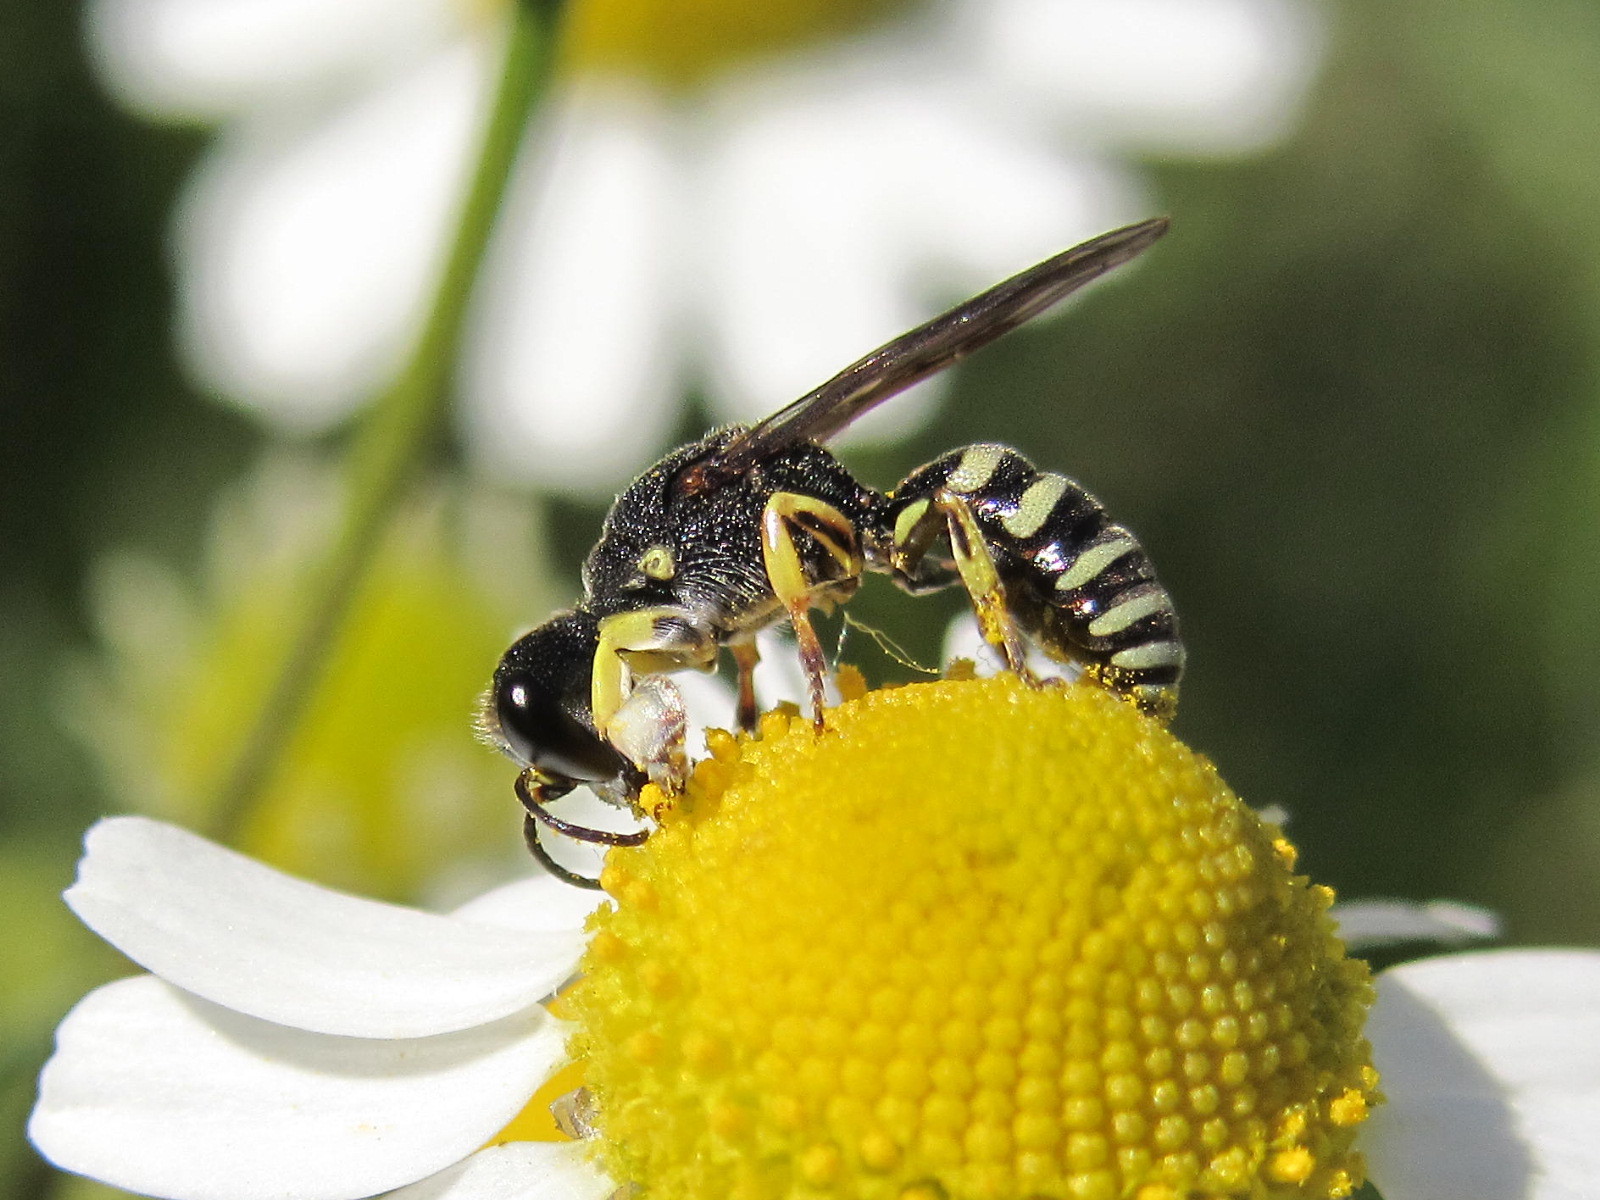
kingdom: Animalia
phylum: Arthropoda
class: Insecta
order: Hymenoptera
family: Crabronidae
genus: Lestica
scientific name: Lestica clypeata
